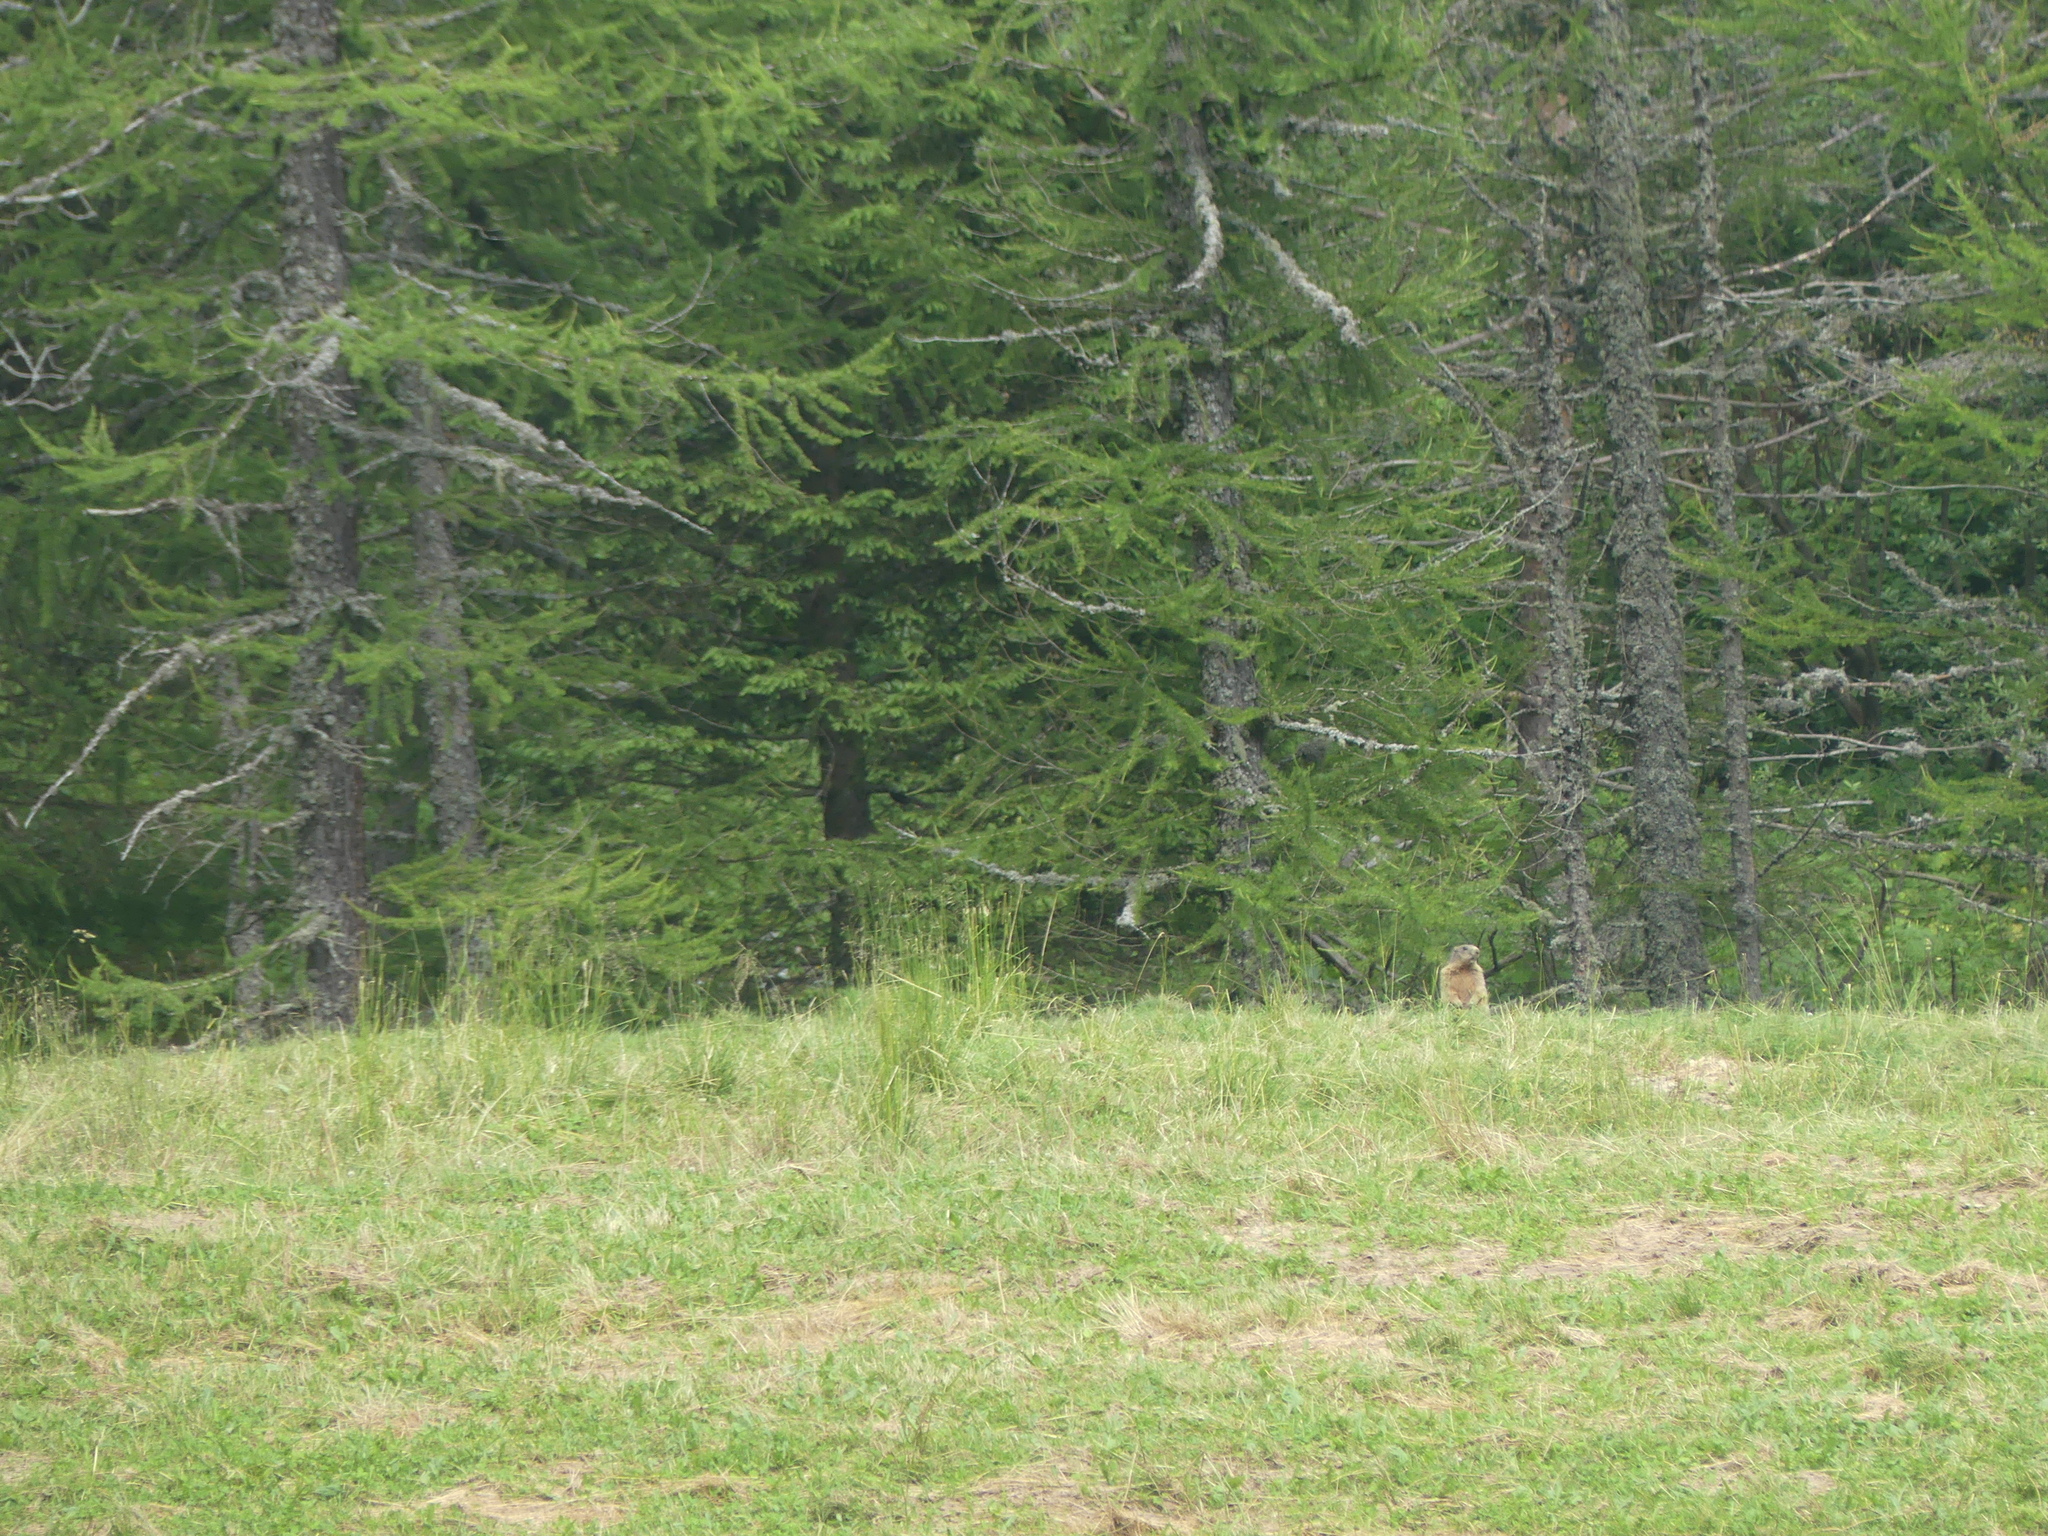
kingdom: Animalia
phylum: Chordata
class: Mammalia
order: Rodentia
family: Sciuridae
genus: Marmota
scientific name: Marmota marmota
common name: Alpine marmot
